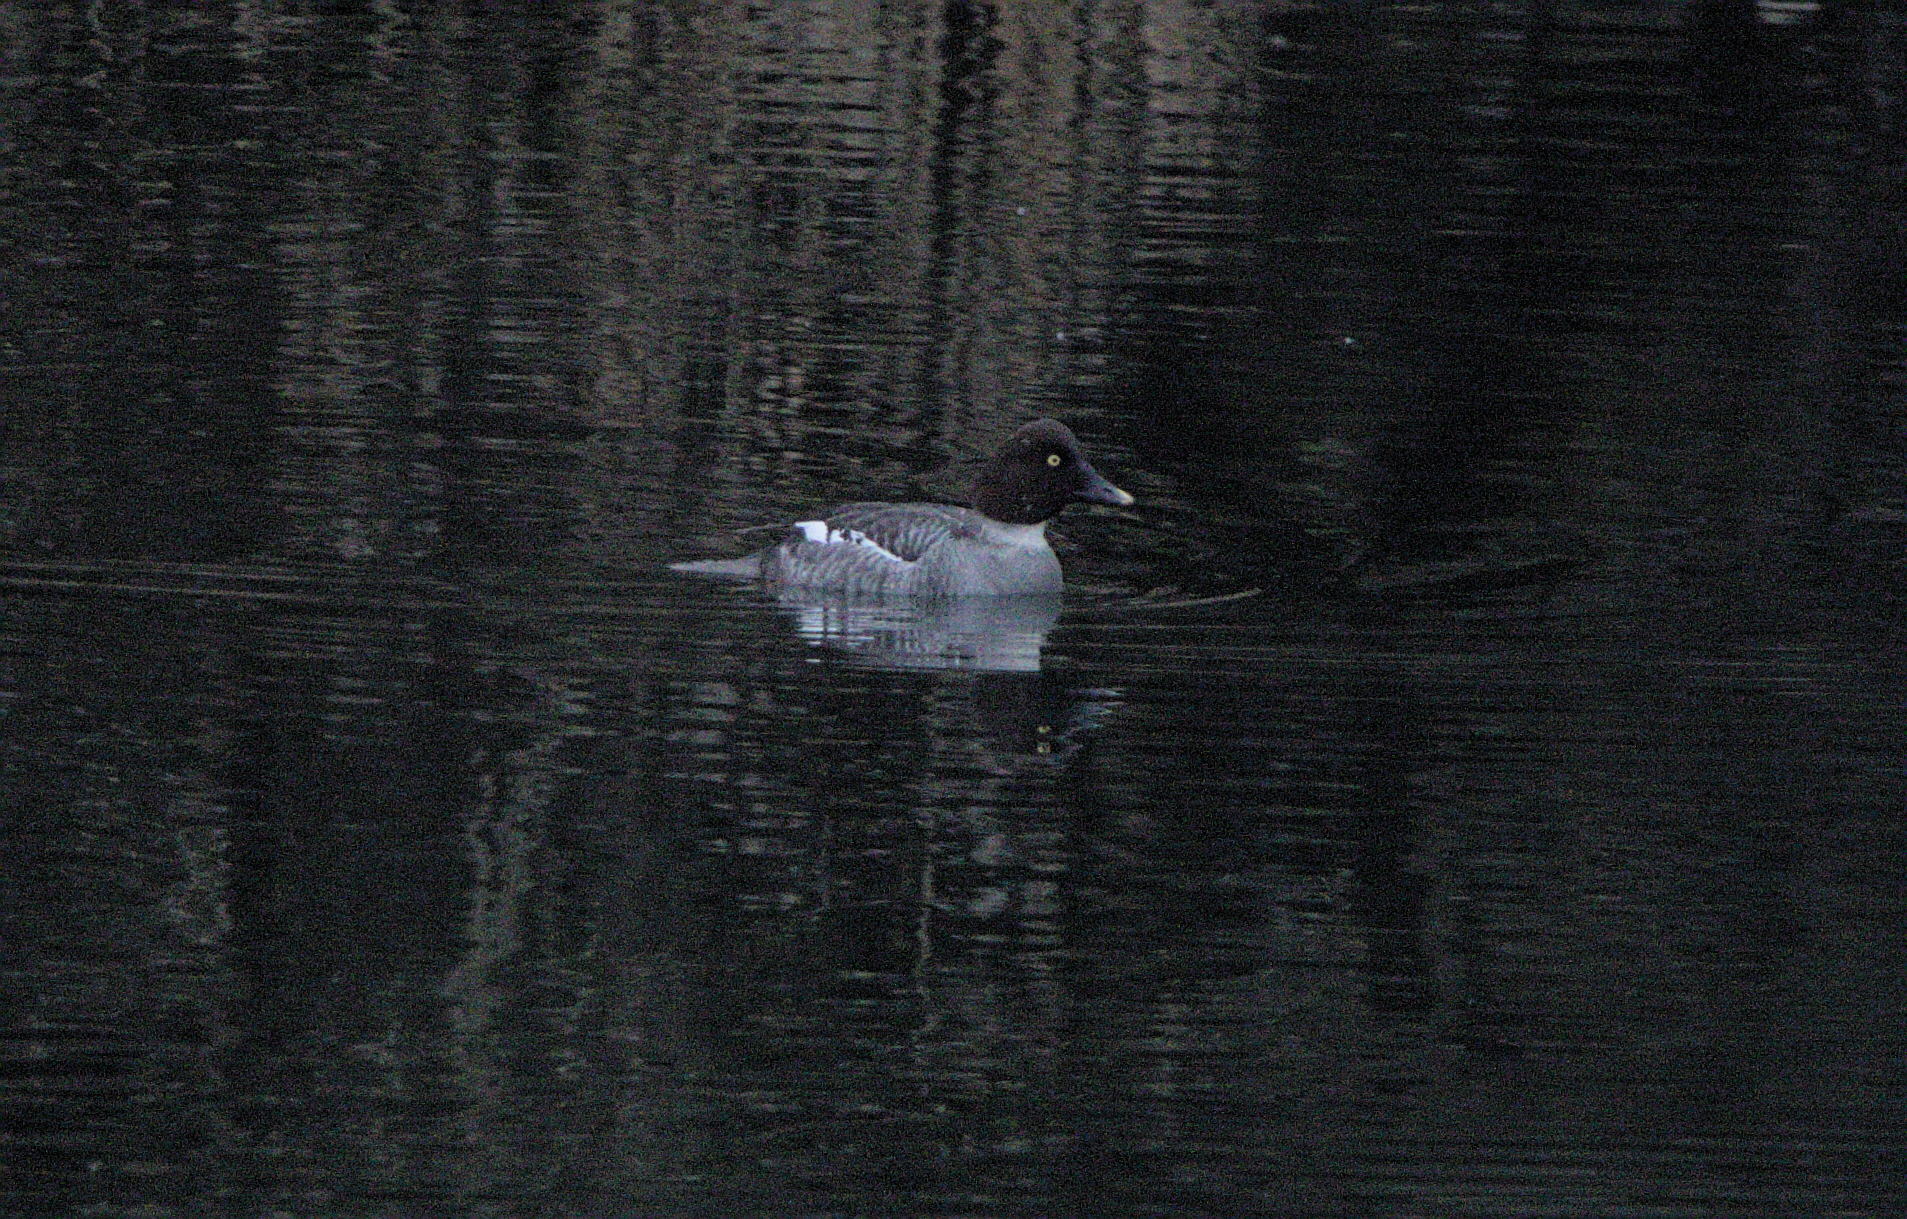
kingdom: Animalia
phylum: Chordata
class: Aves
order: Anseriformes
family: Anatidae
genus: Bucephala
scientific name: Bucephala clangula
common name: Common goldeneye
